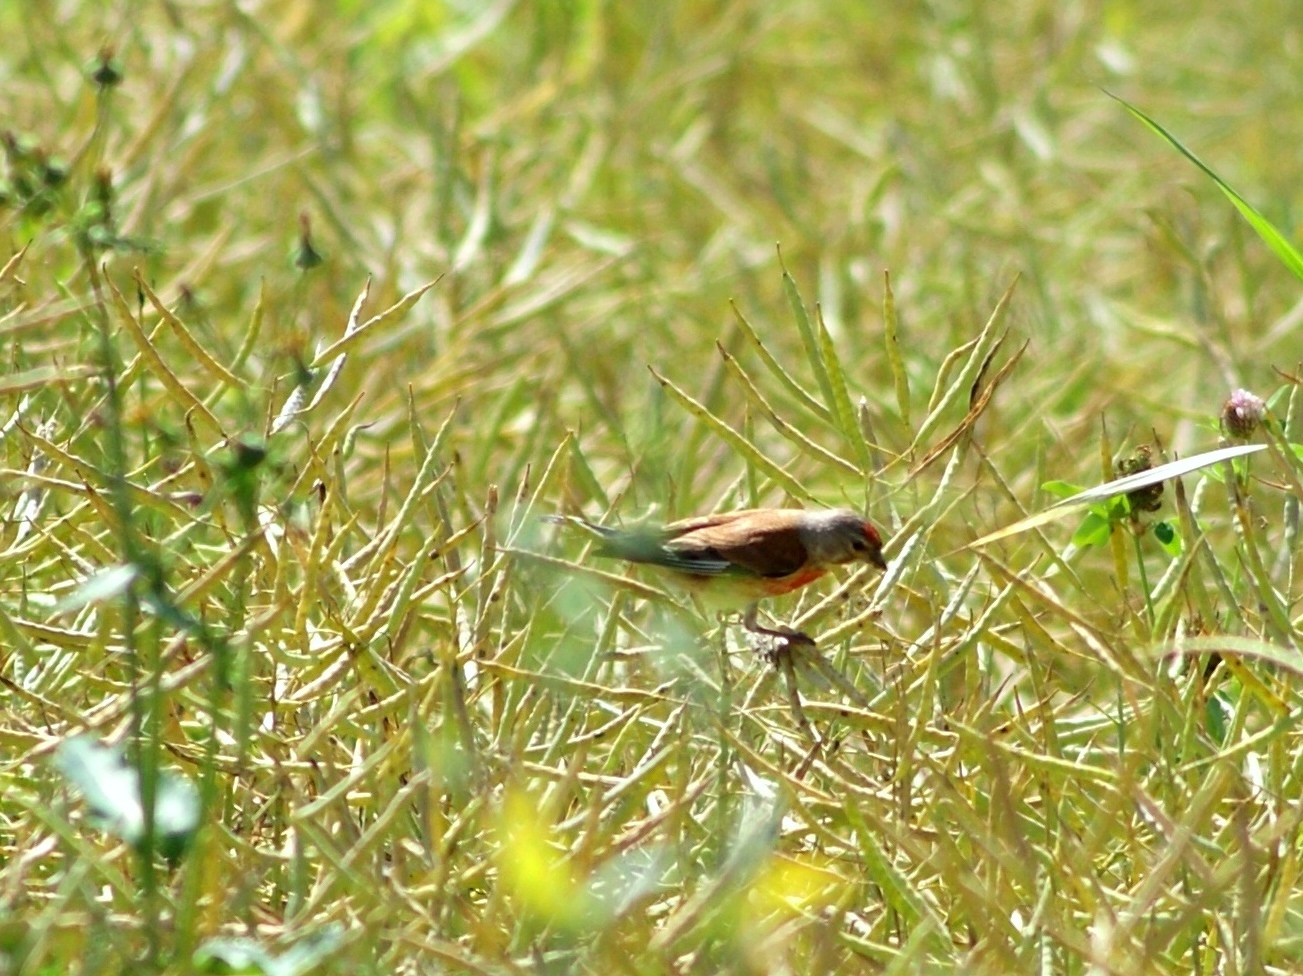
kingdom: Animalia
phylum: Chordata
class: Aves
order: Passeriformes
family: Fringillidae
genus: Linaria
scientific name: Linaria cannabina
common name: Common linnet
